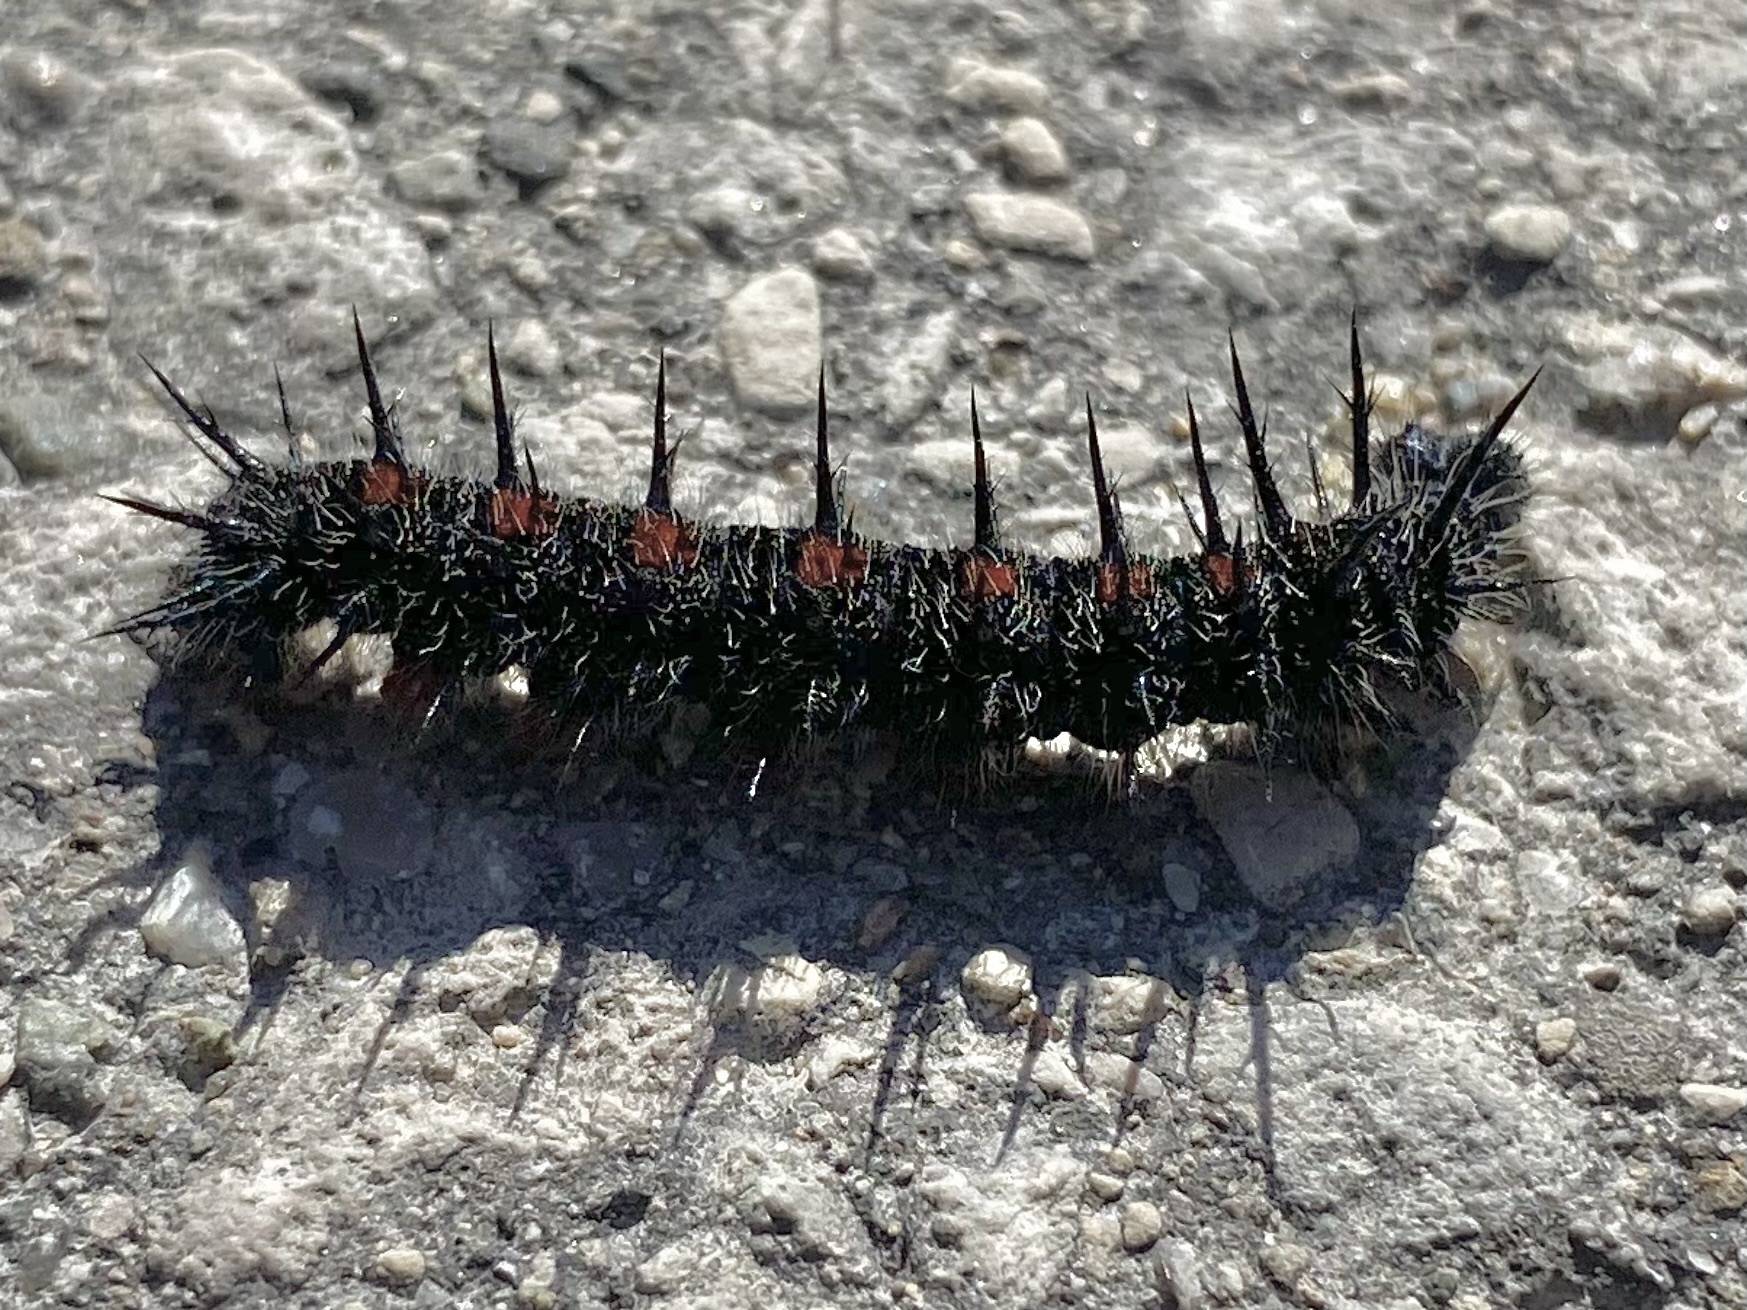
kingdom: Animalia
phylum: Arthropoda
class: Insecta
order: Lepidoptera
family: Nymphalidae
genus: Nymphalis
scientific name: Nymphalis antiopa
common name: Camberwell beauty
